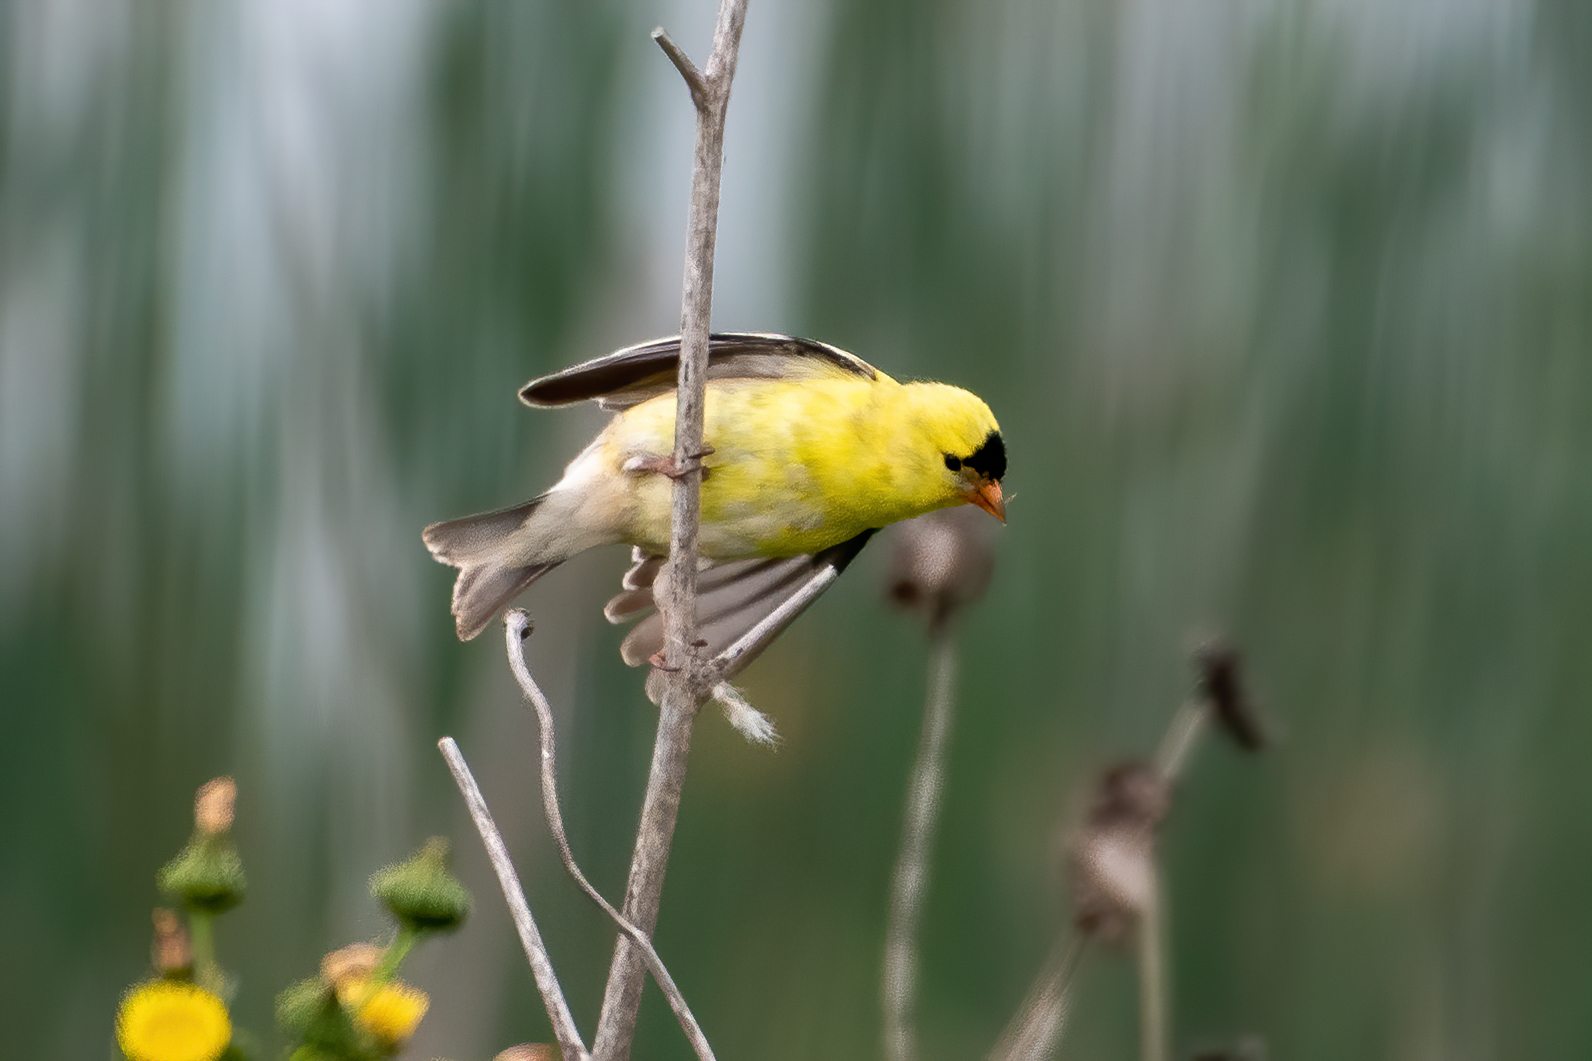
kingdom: Animalia
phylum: Chordata
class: Aves
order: Passeriformes
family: Fringillidae
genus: Spinus
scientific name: Spinus tristis
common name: American goldfinch
